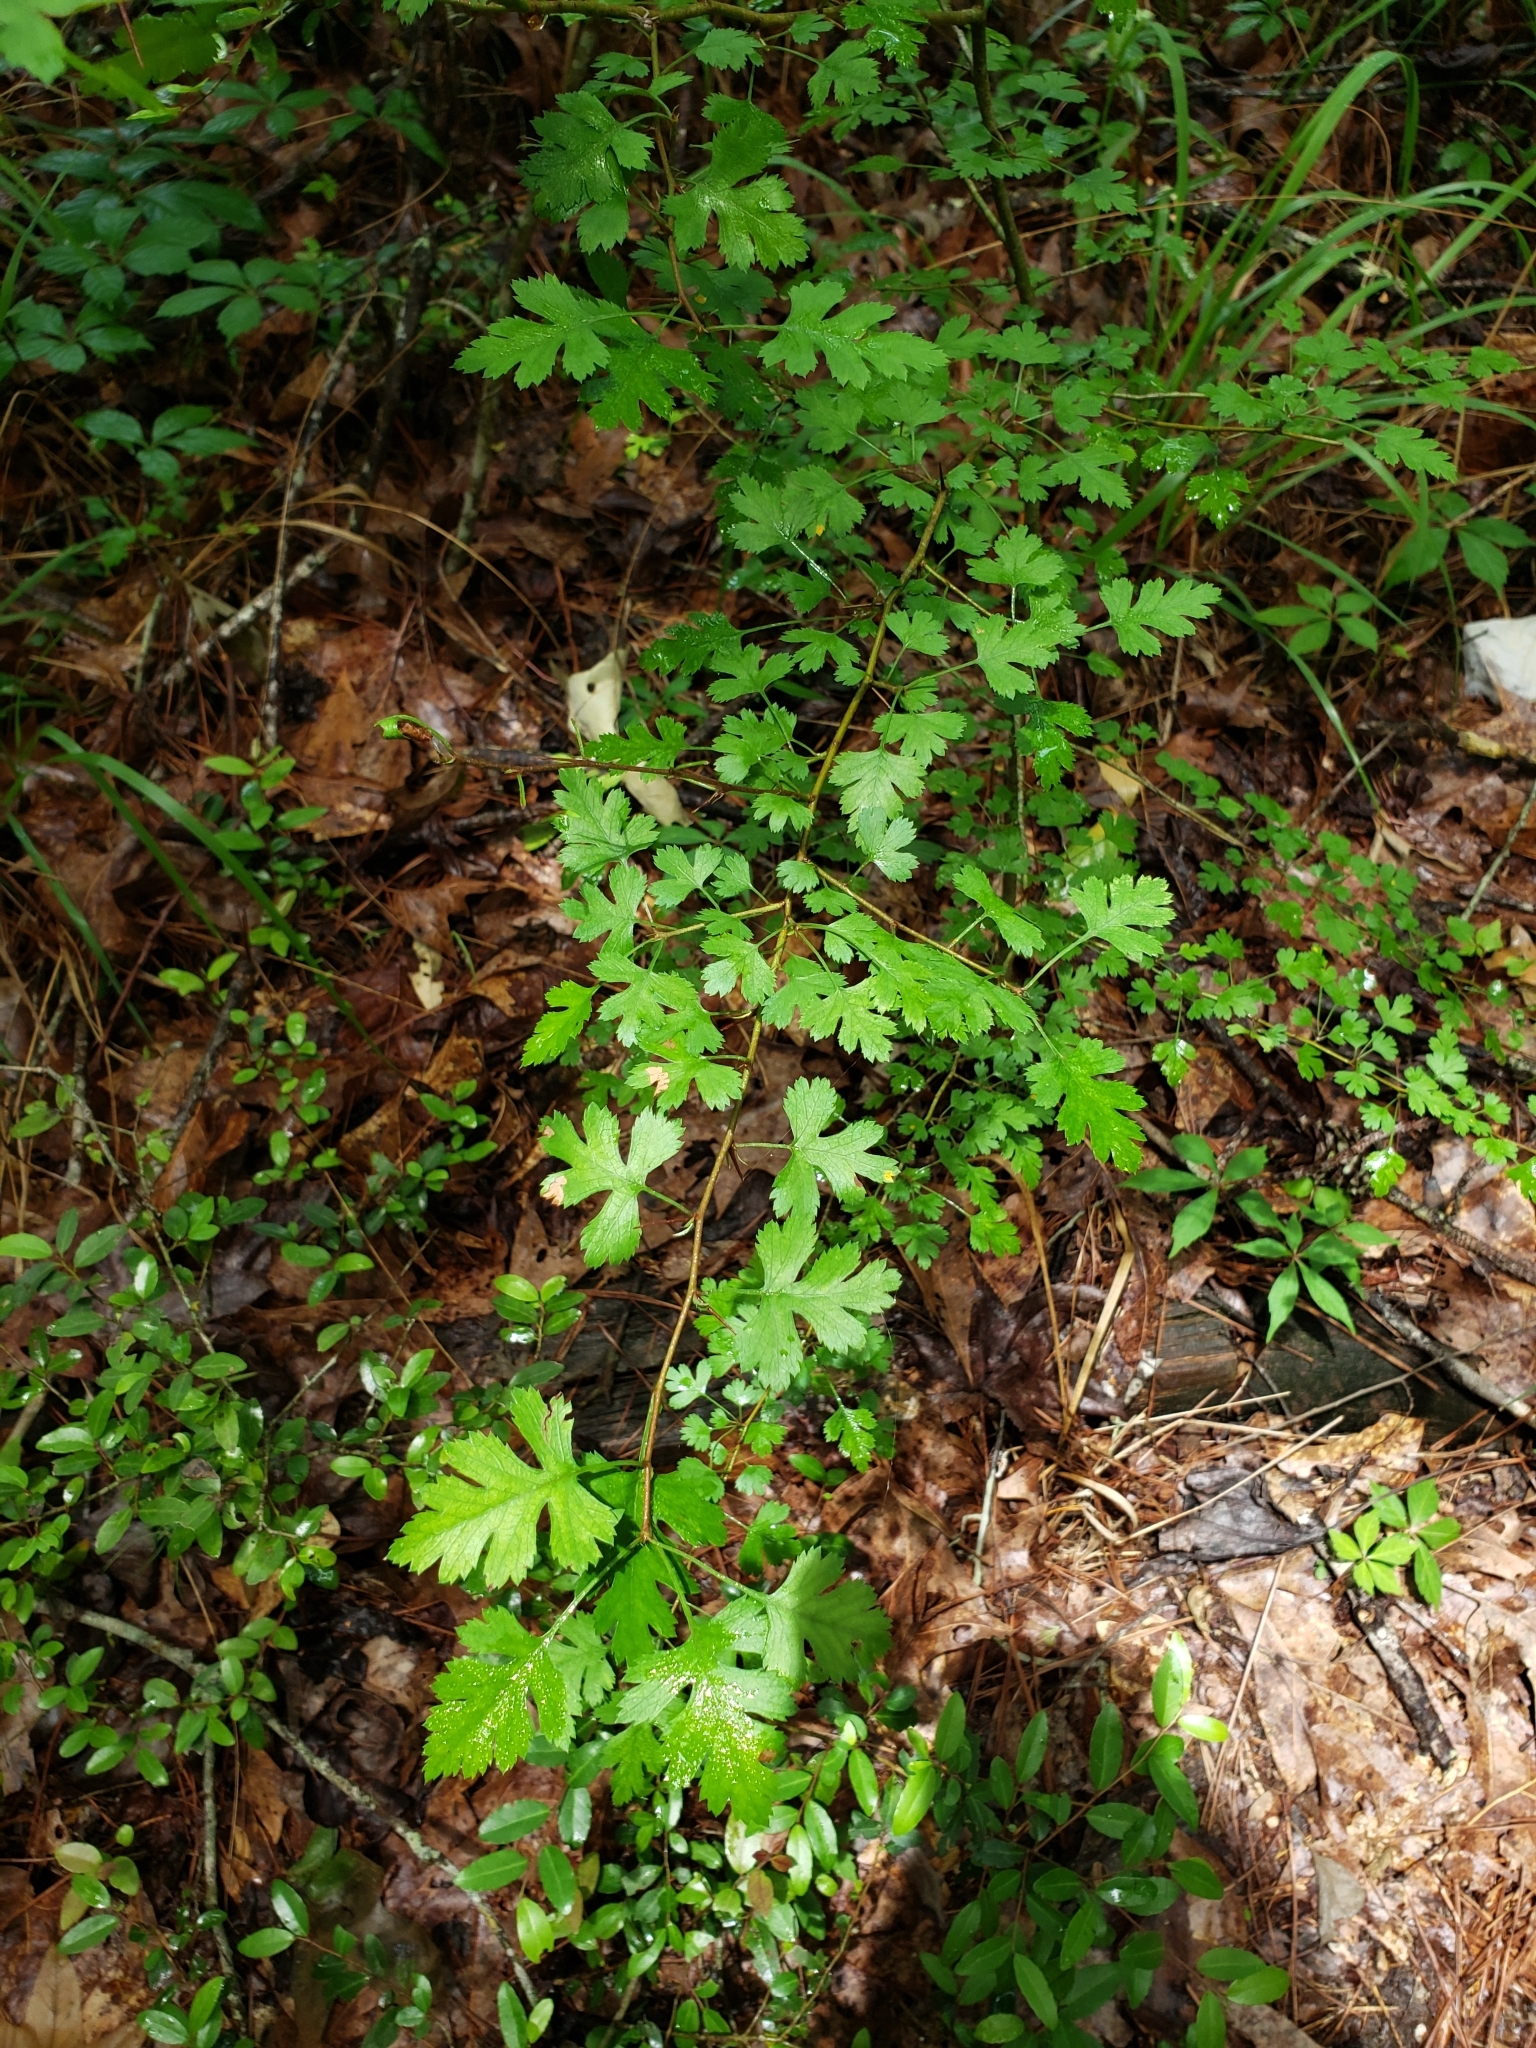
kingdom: Plantae
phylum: Tracheophyta
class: Magnoliopsida
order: Rosales
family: Rosaceae
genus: Crataegus
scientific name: Crataegus marshallii
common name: Parsley-hawthorn
